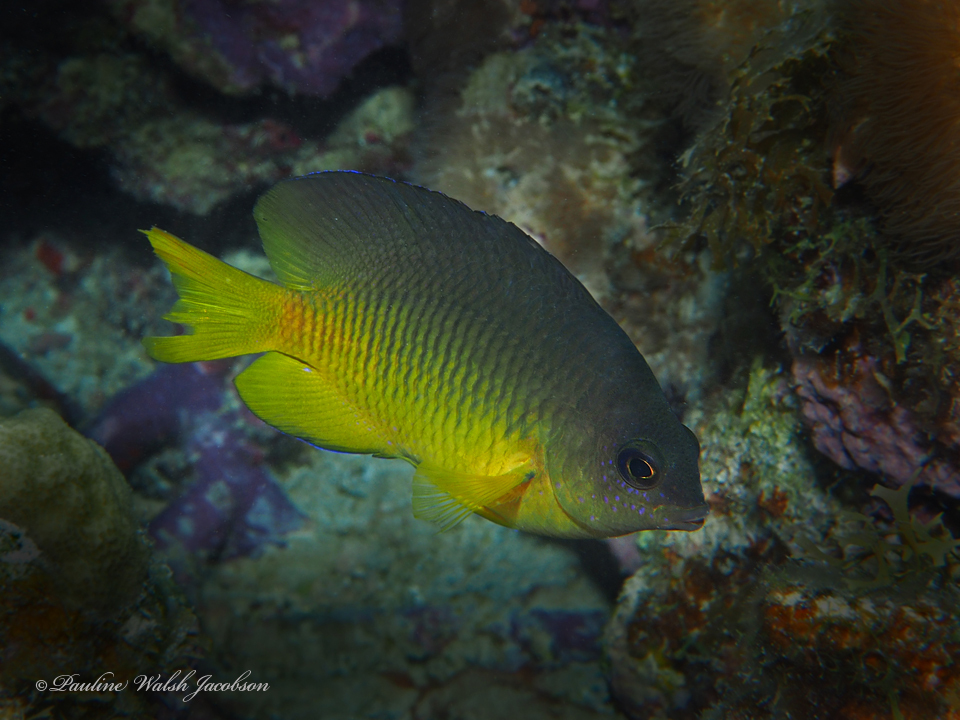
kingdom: Animalia
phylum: Chordata
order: Perciformes
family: Pomacentridae
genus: Stegastes
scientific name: Stegastes xanthurus
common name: Cocoa damselfish
